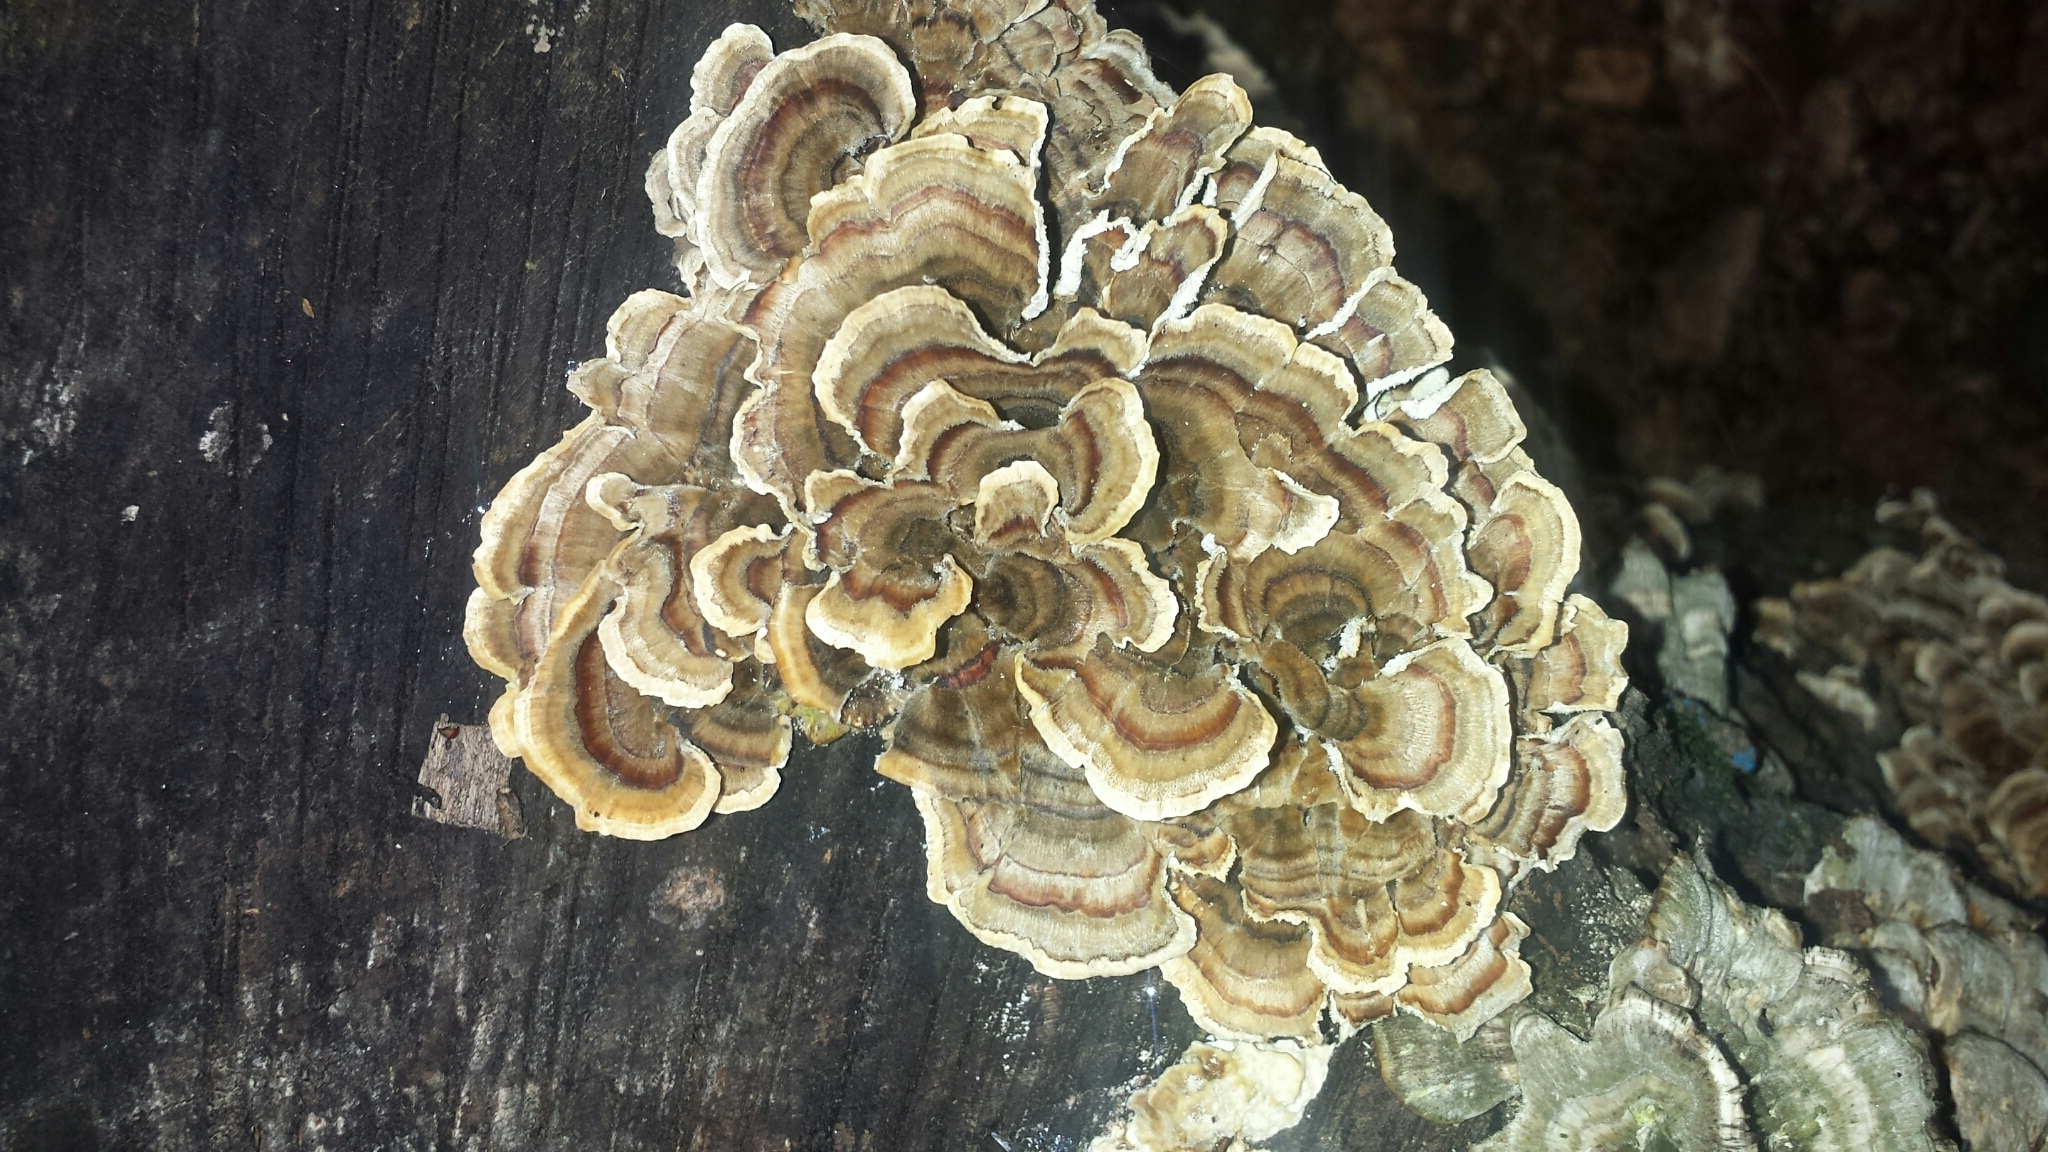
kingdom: Fungi
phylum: Basidiomycota
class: Agaricomycetes
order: Polyporales
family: Polyporaceae
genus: Trametes
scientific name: Trametes versicolor
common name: Turkeytail
